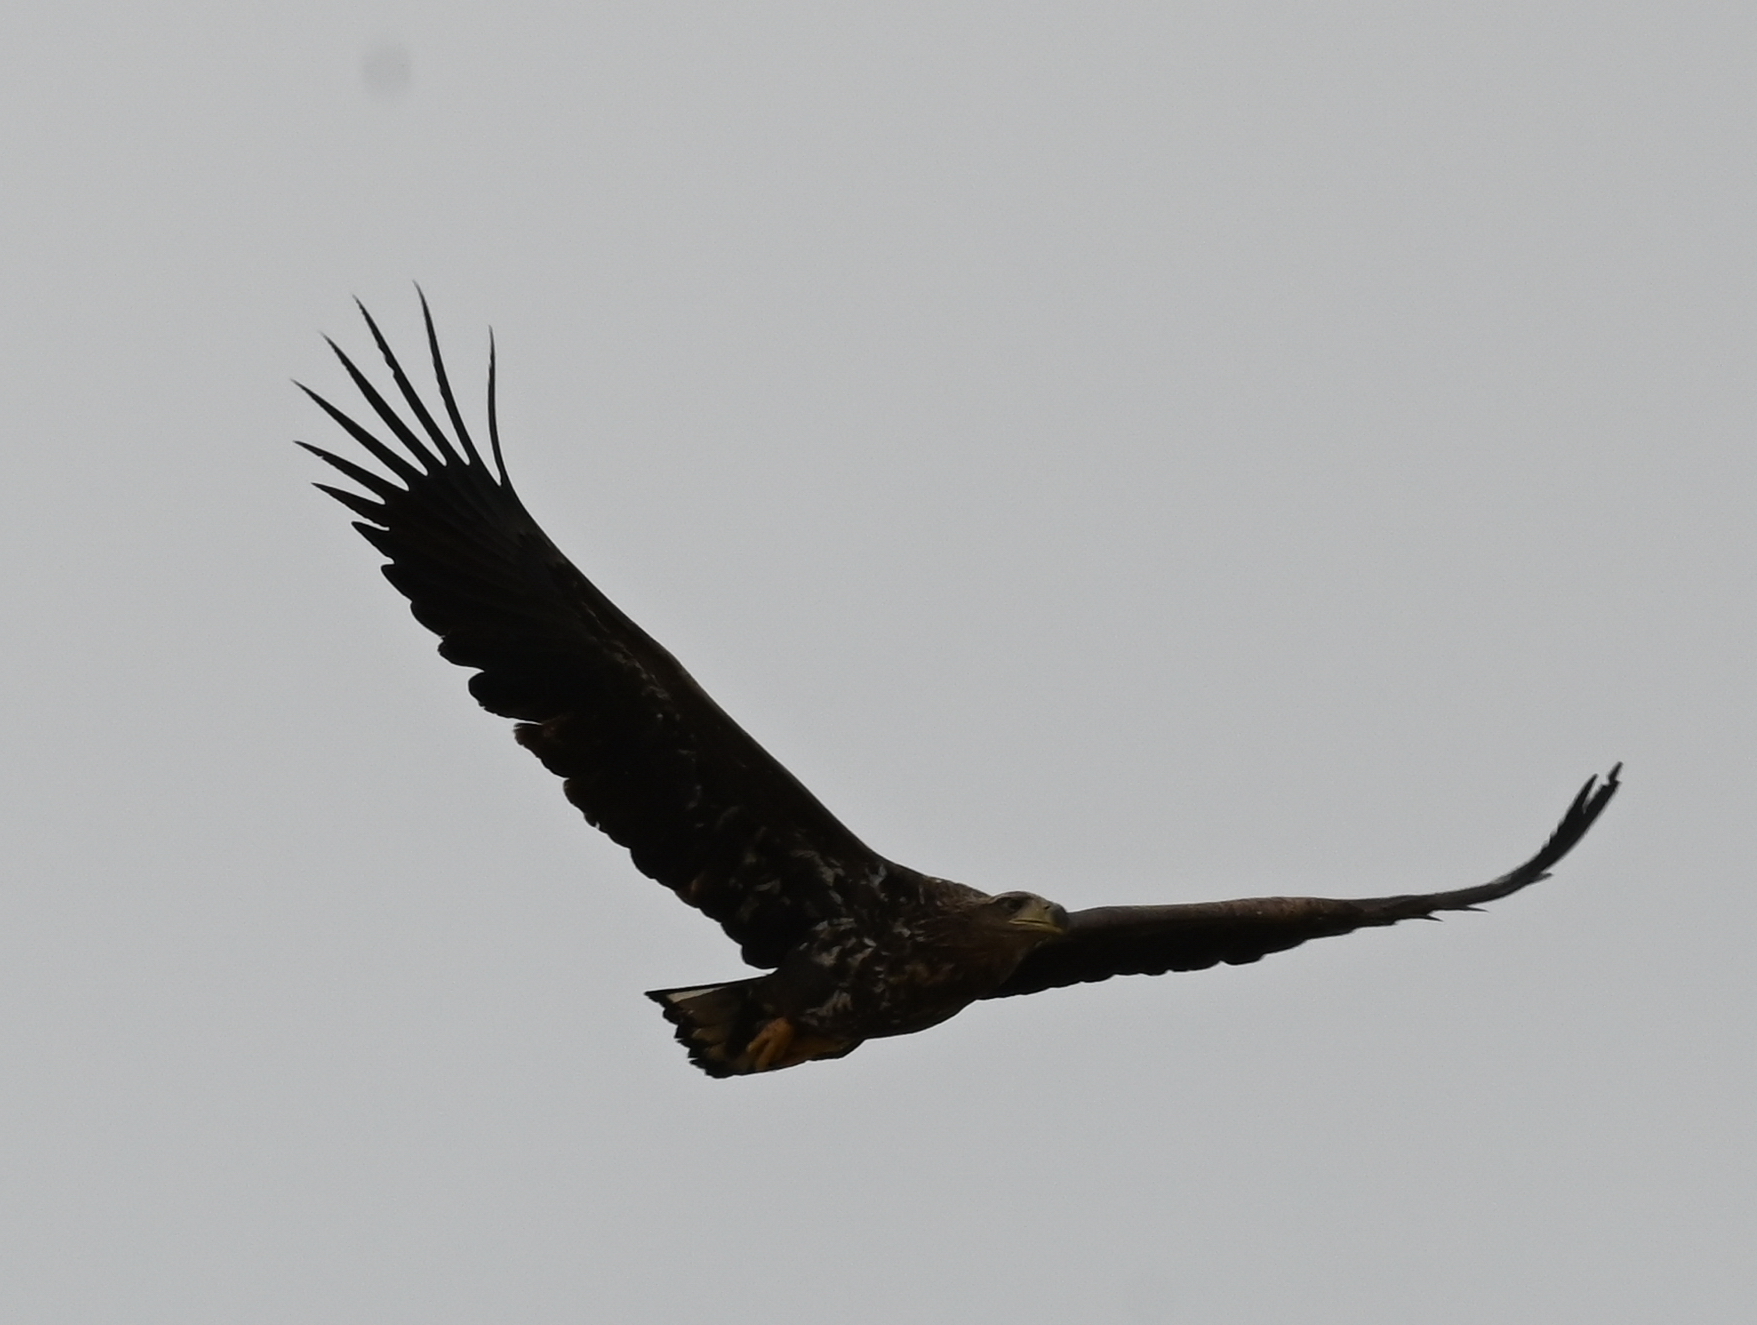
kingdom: Animalia
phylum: Chordata
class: Aves
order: Accipitriformes
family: Accipitridae
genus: Haliaeetus
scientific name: Haliaeetus albicilla
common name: White-tailed eagle
